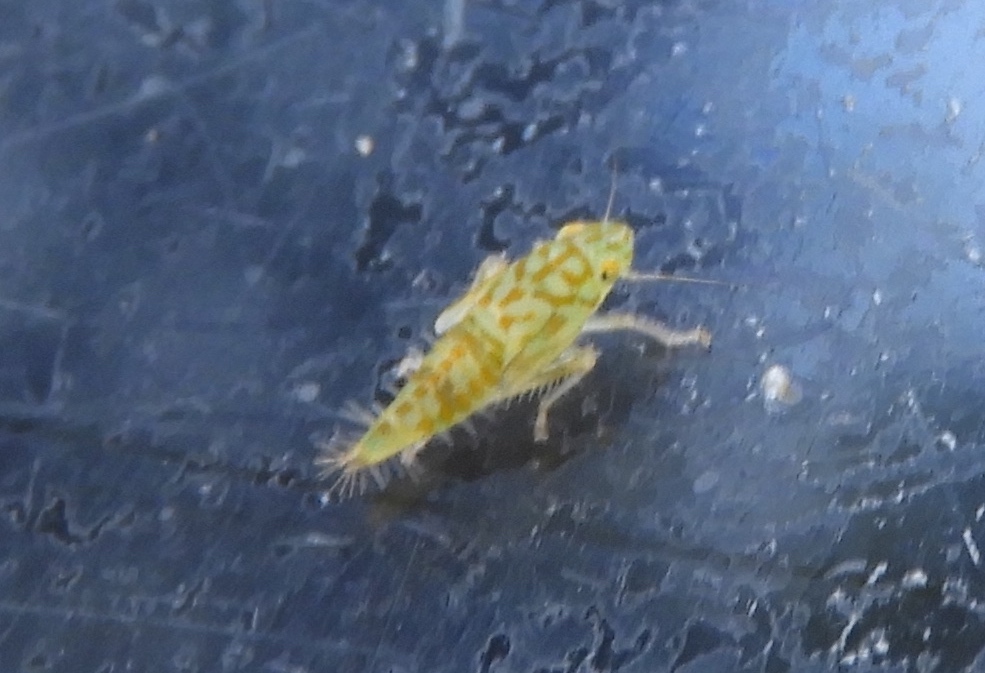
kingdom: Animalia
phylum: Arthropoda
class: Insecta
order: Hemiptera
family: Cicadellidae
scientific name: Cicadellidae
